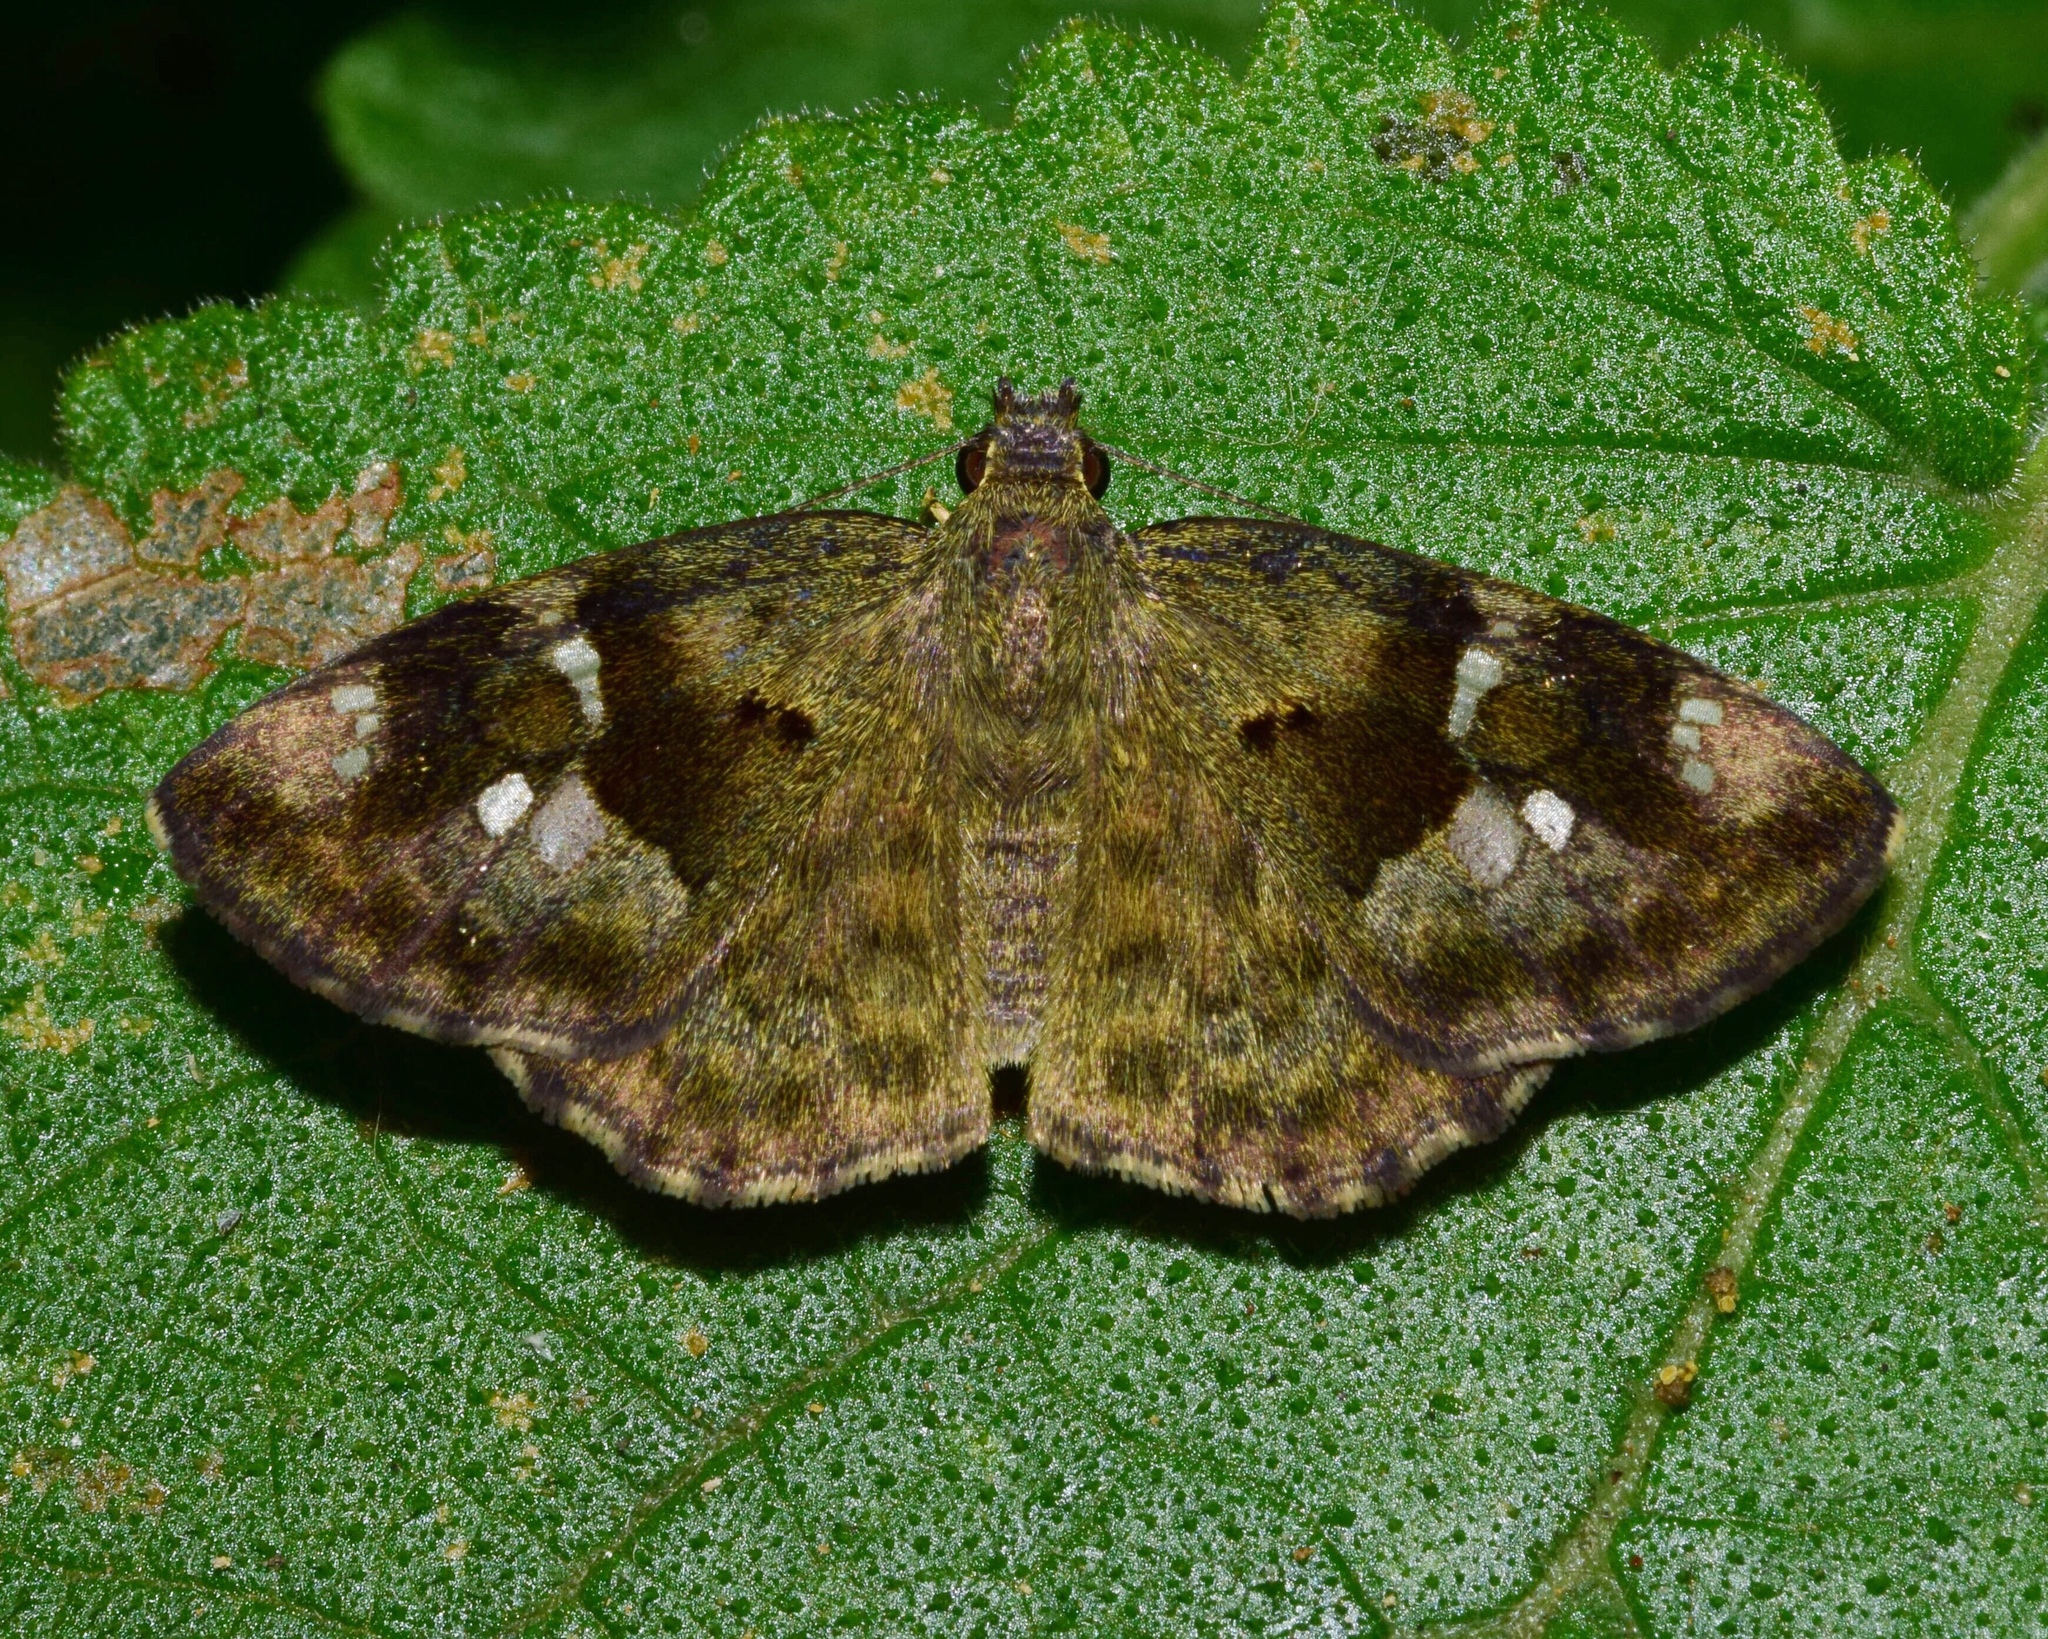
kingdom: Animalia
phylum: Arthropoda
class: Insecta
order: Lepidoptera
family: Hesperiidae
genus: Sarangesa
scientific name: Sarangesa motozi
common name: Forest elfin
